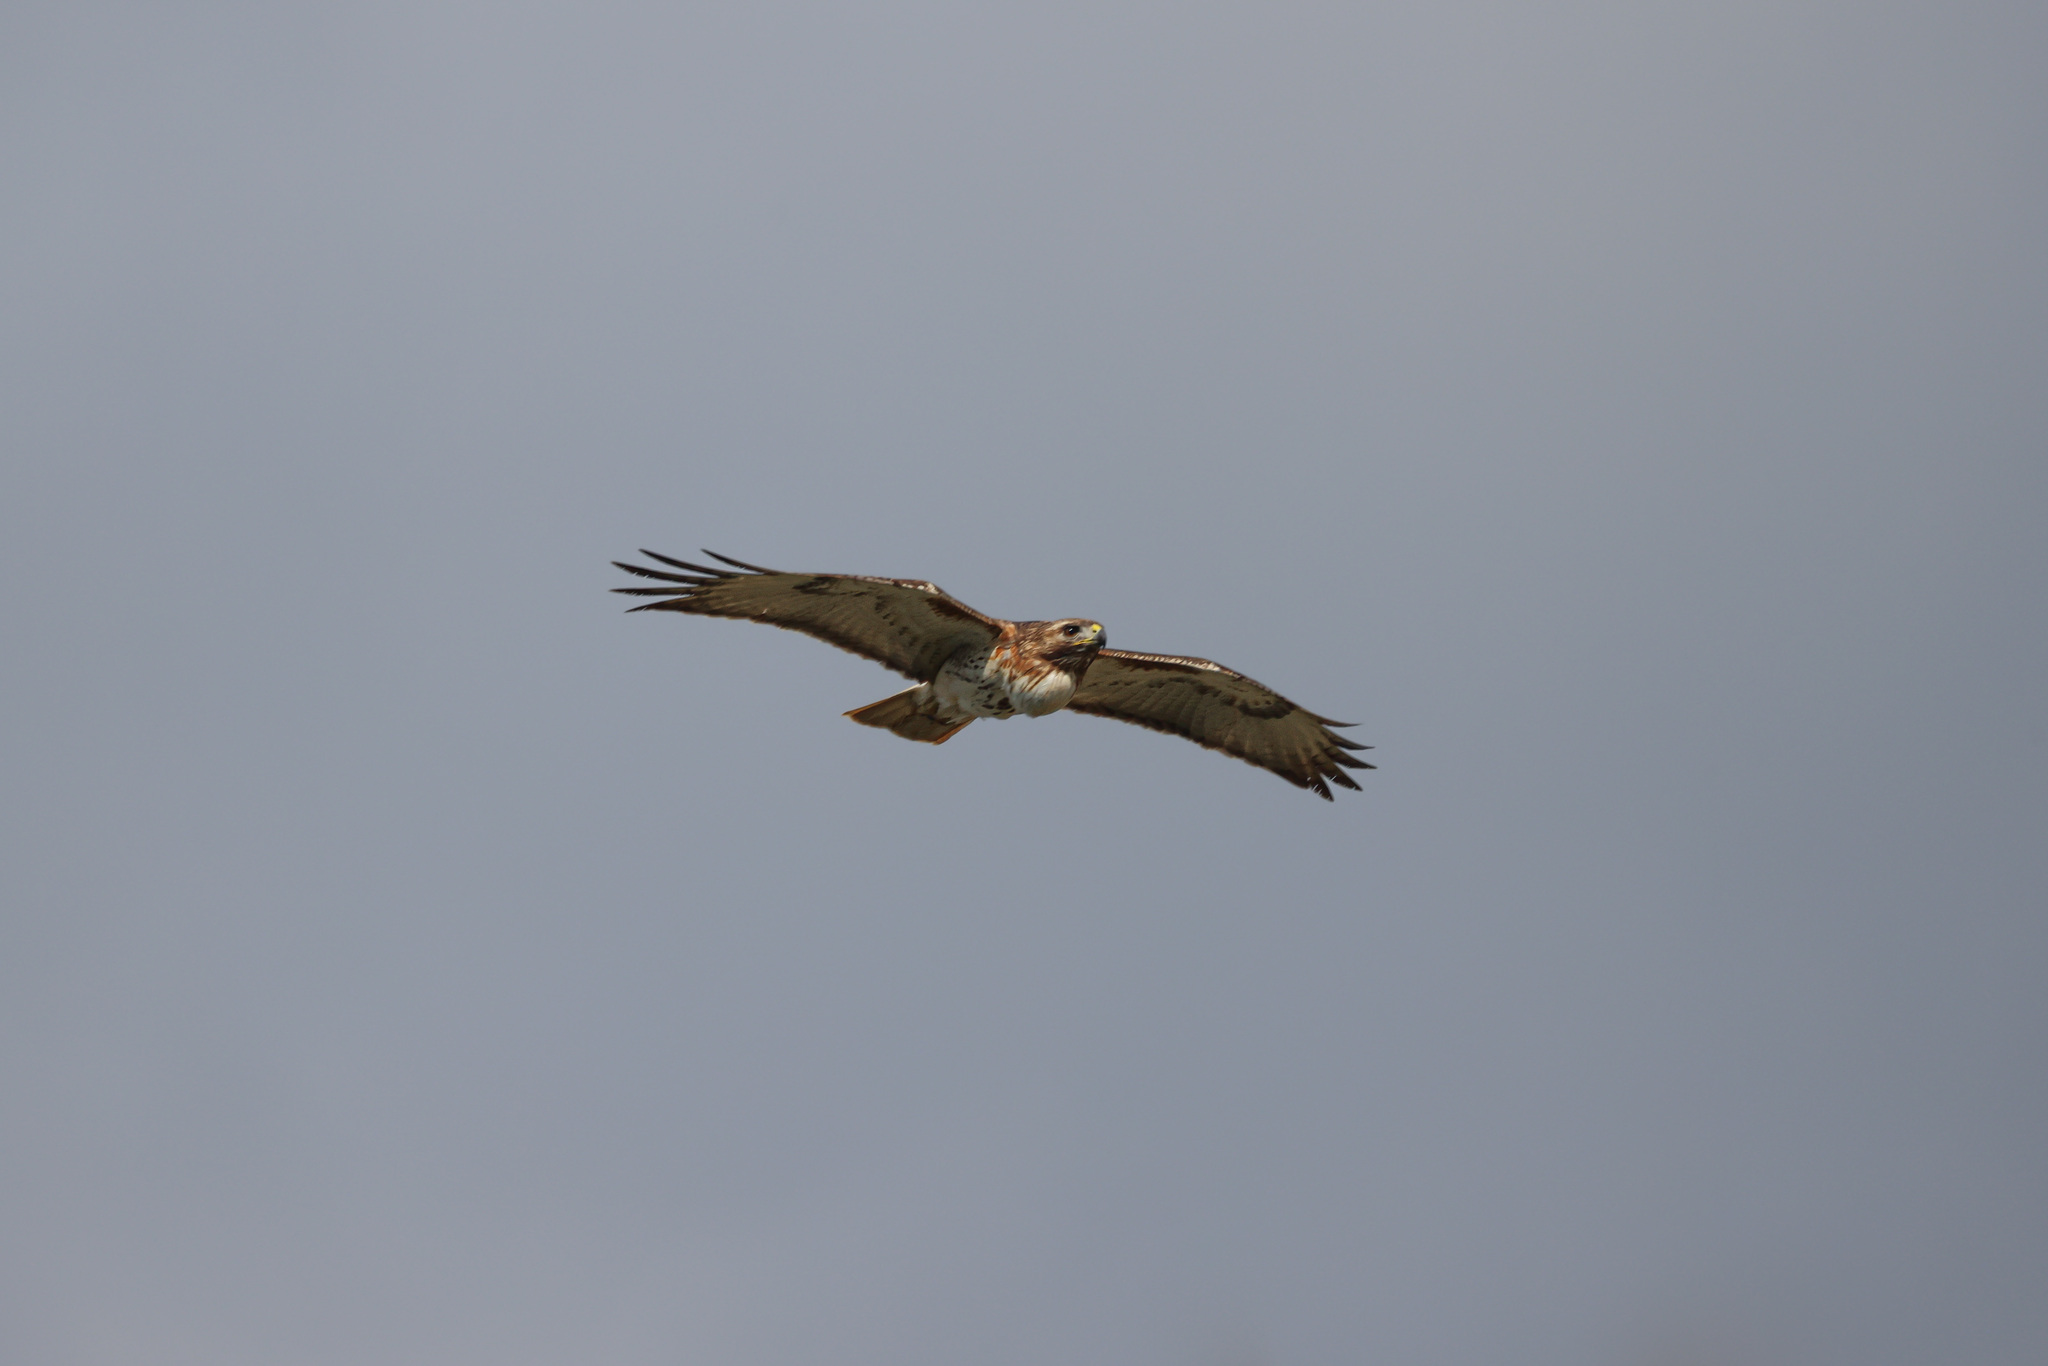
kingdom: Animalia
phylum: Chordata
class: Aves
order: Accipitriformes
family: Accipitridae
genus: Buteo
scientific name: Buteo jamaicensis
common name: Red-tailed hawk
